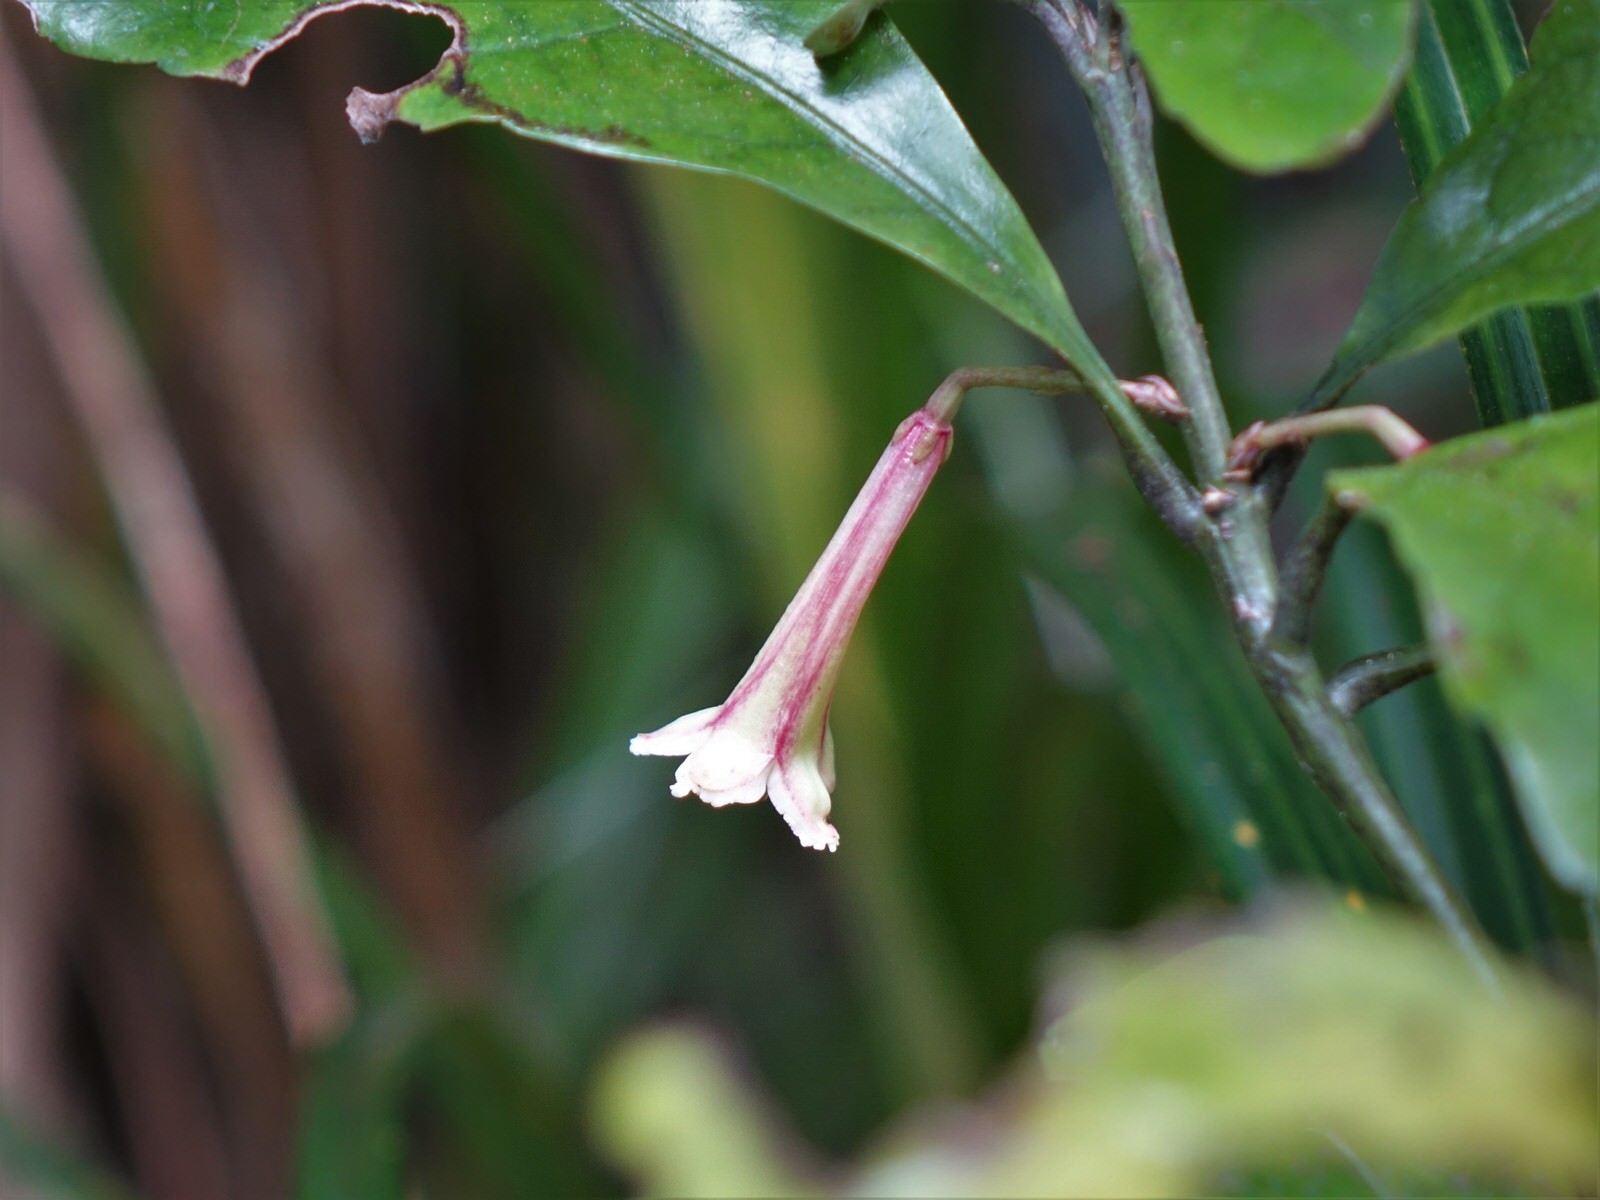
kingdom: Plantae
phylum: Tracheophyta
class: Magnoliopsida
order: Asterales
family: Alseuosmiaceae
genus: Alseuosmia
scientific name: Alseuosmia macrophylla
